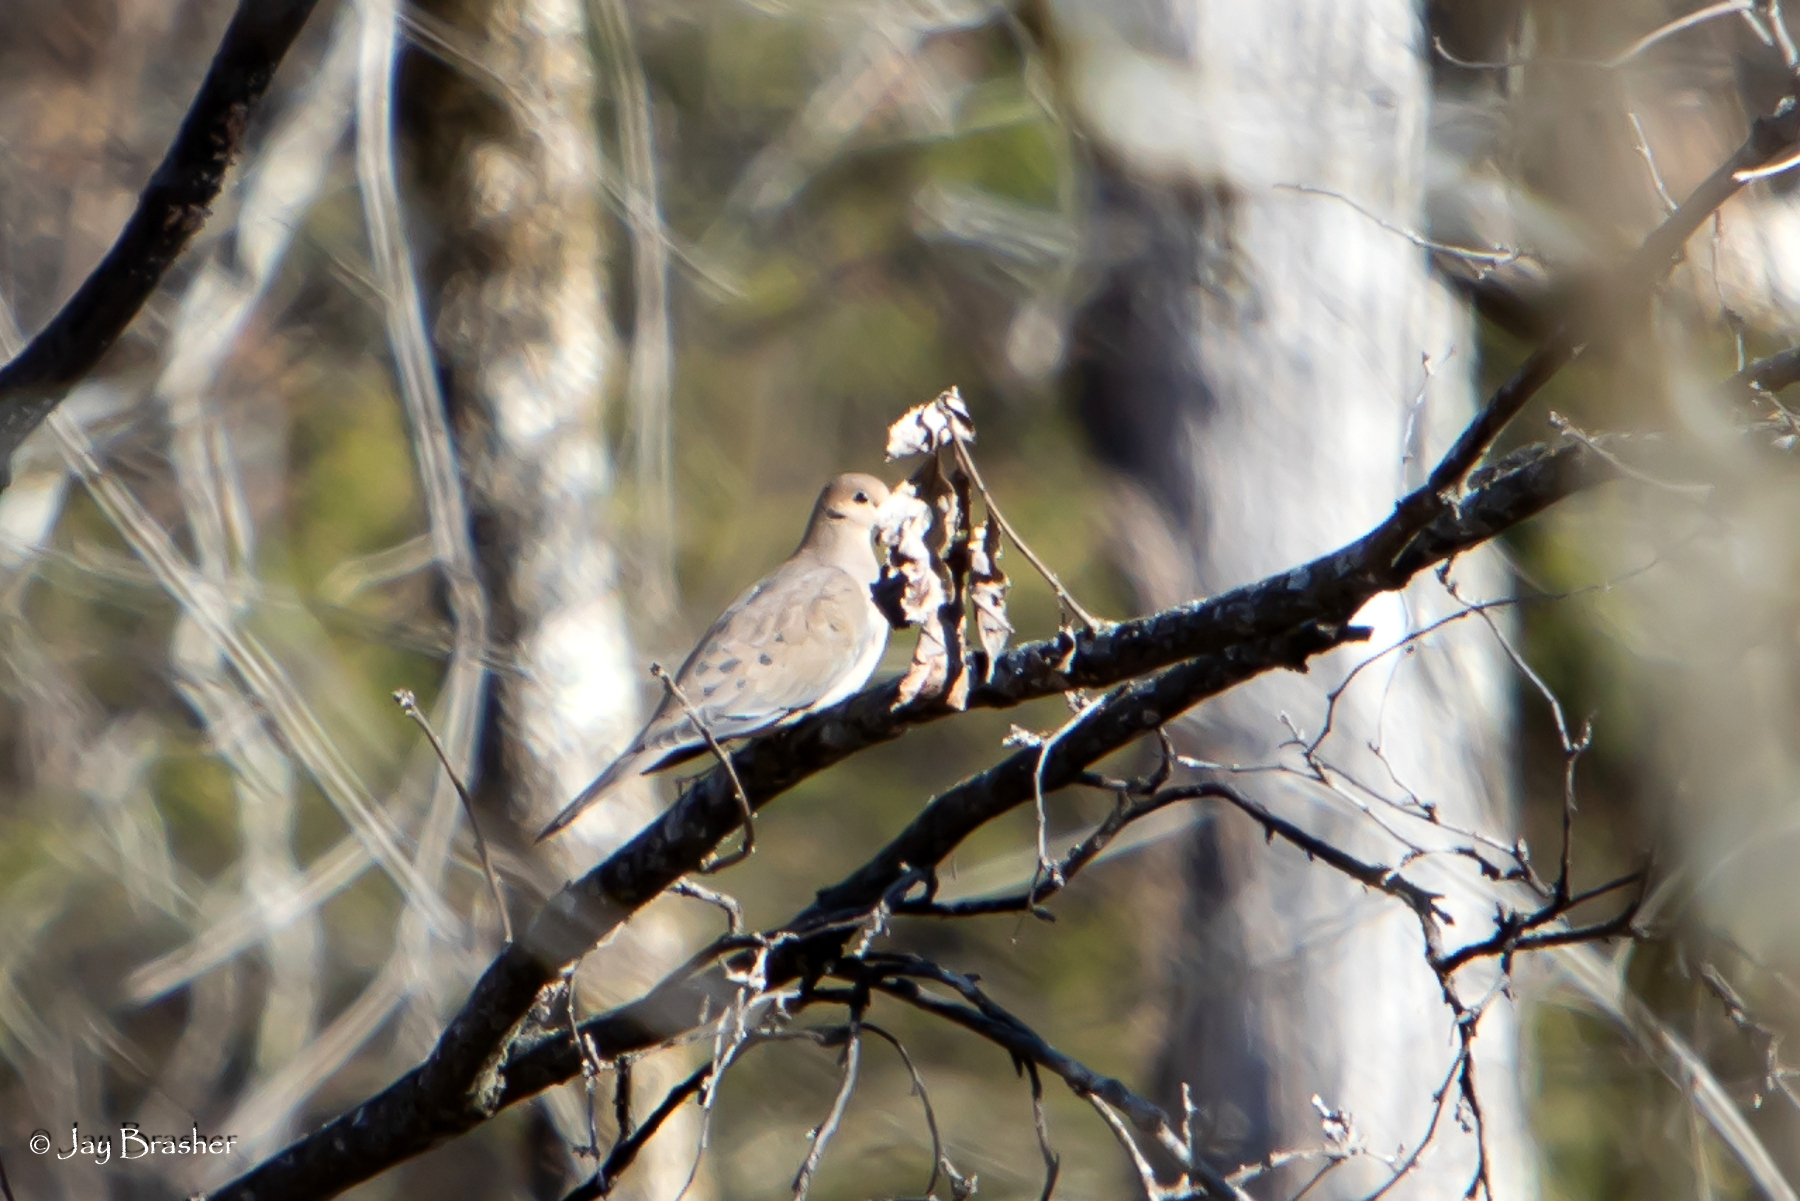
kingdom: Animalia
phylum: Chordata
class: Aves
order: Columbiformes
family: Columbidae
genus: Zenaida
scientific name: Zenaida macroura
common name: Mourning dove
